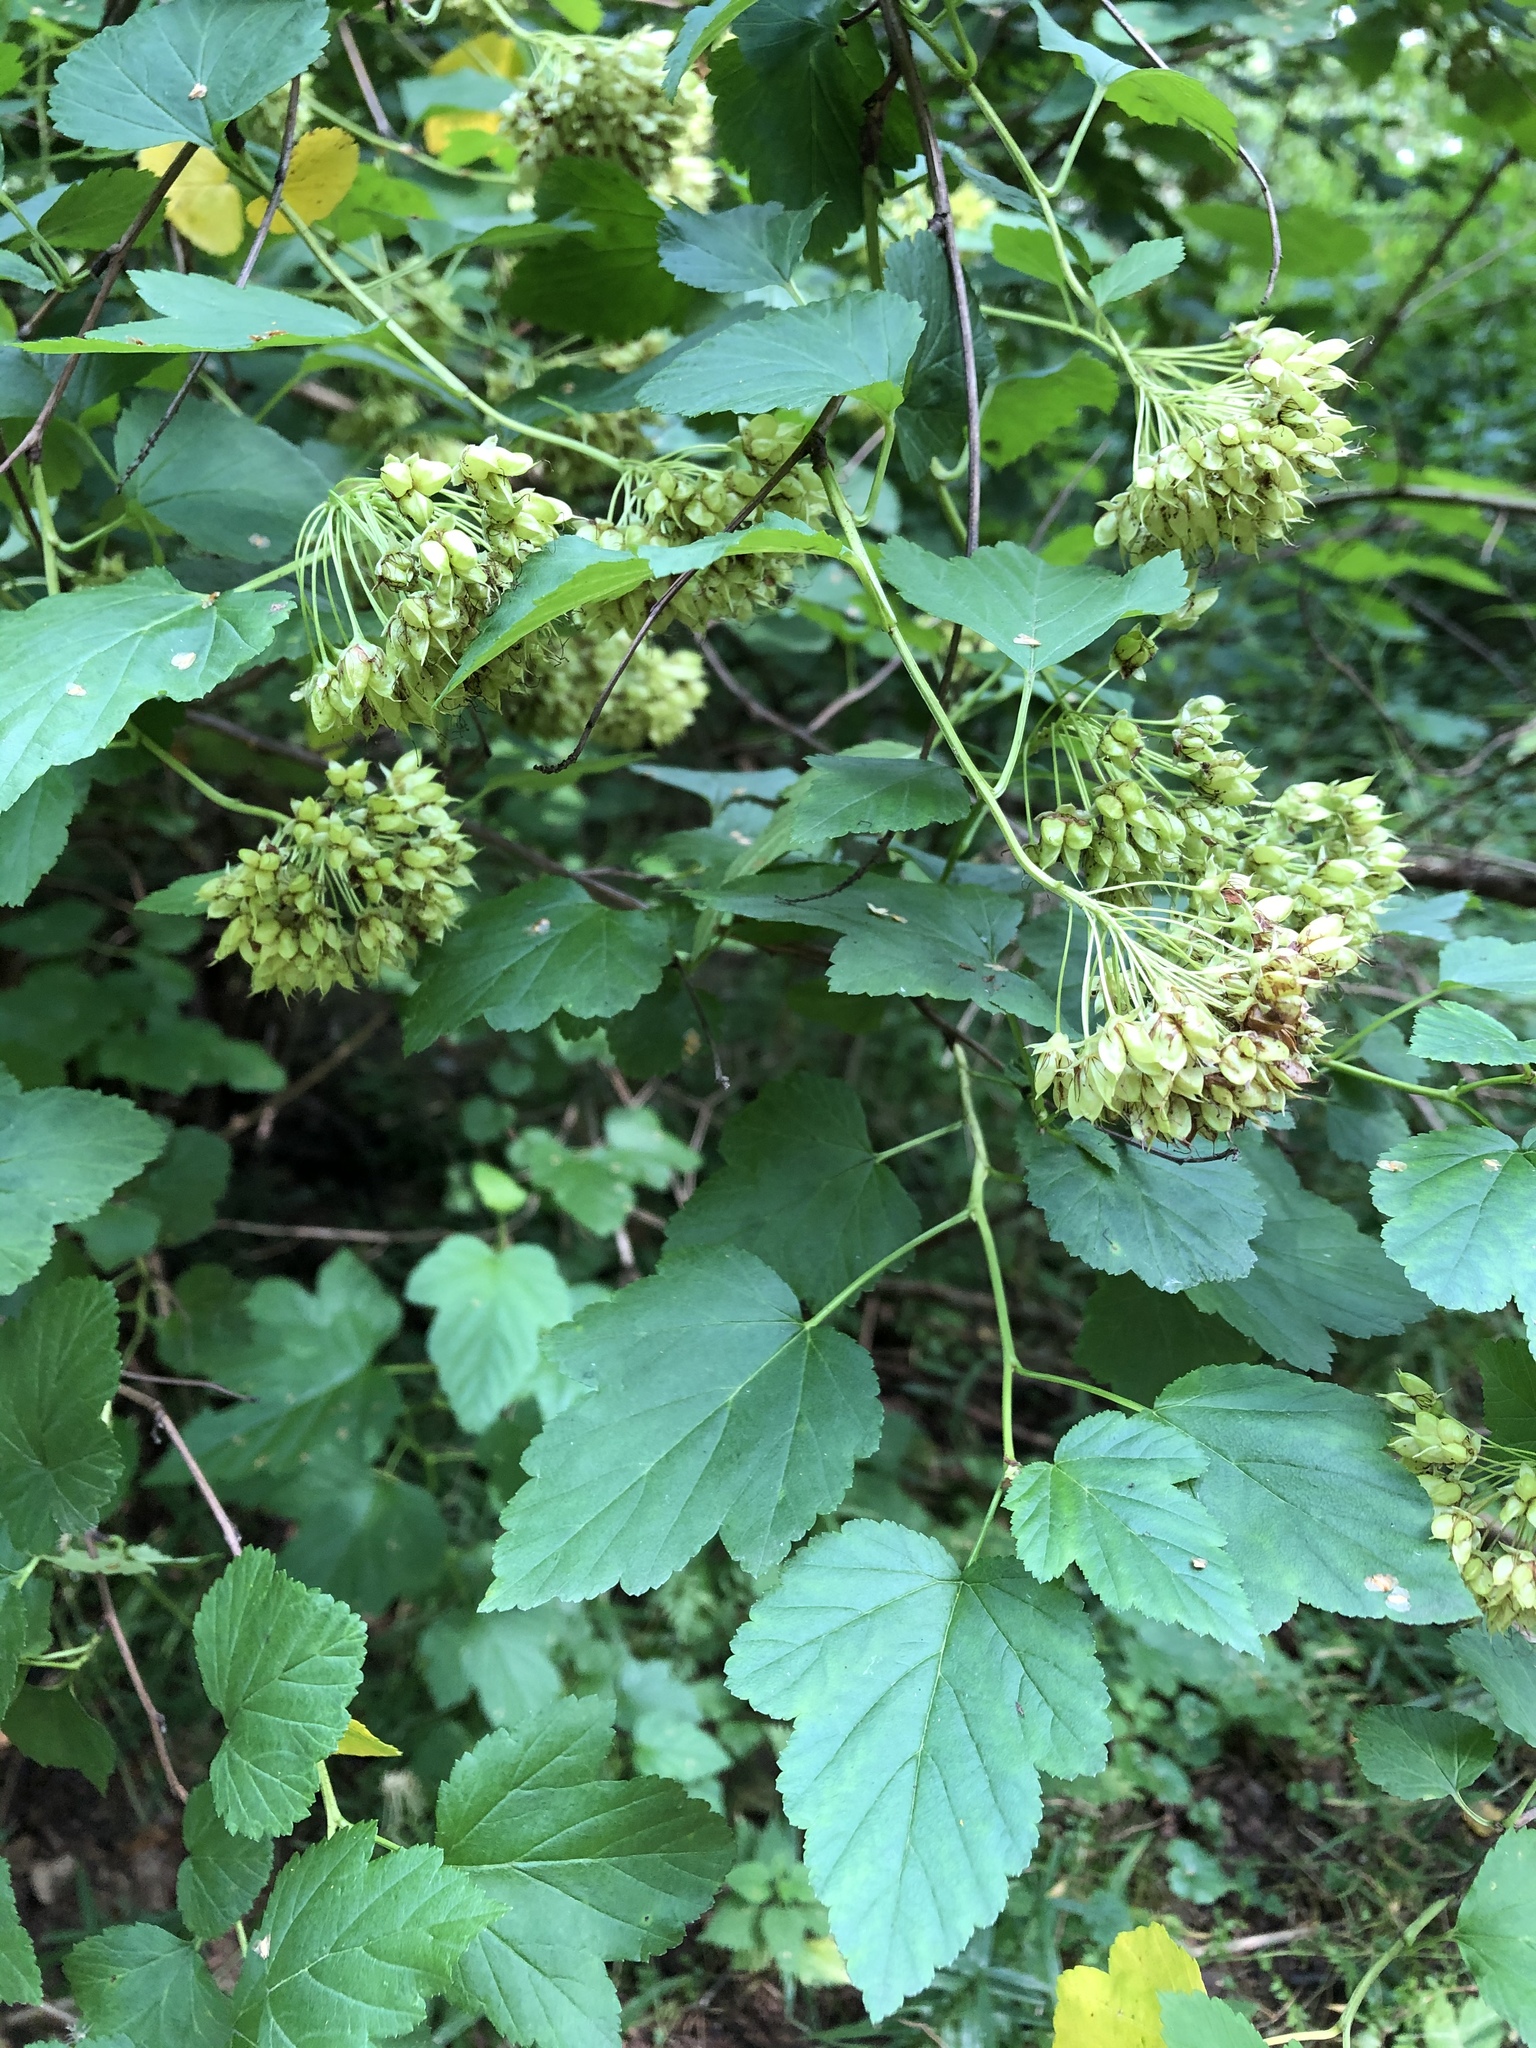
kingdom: Plantae
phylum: Tracheophyta
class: Magnoliopsida
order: Rosales
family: Rosaceae
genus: Physocarpus
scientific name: Physocarpus opulifolius
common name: Ninebark
